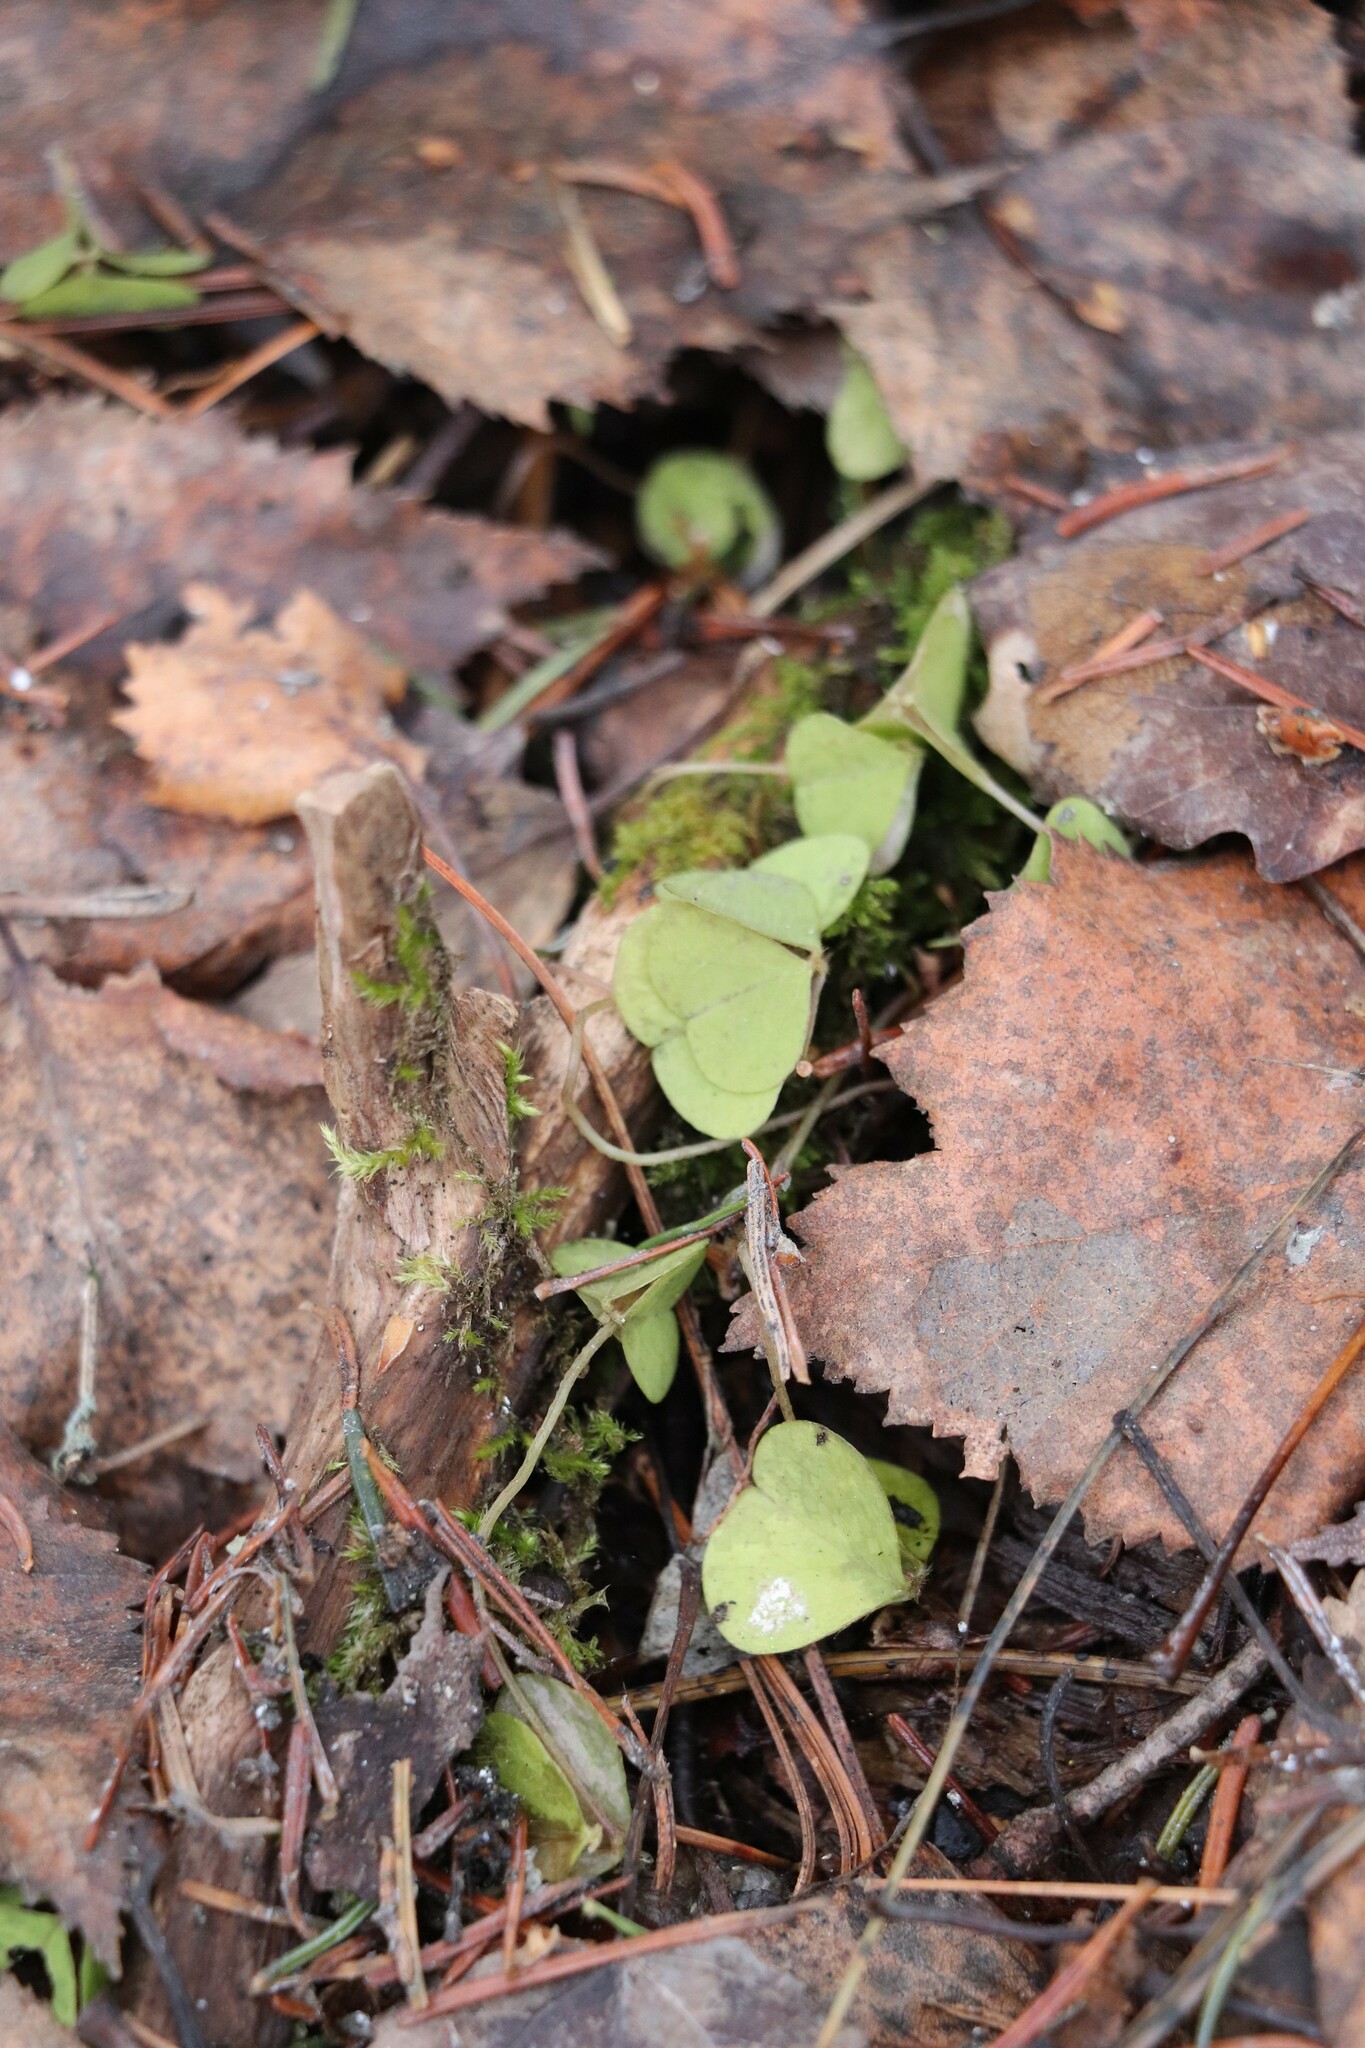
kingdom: Plantae
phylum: Tracheophyta
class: Magnoliopsida
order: Oxalidales
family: Oxalidaceae
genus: Oxalis
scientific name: Oxalis acetosella
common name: Wood-sorrel
